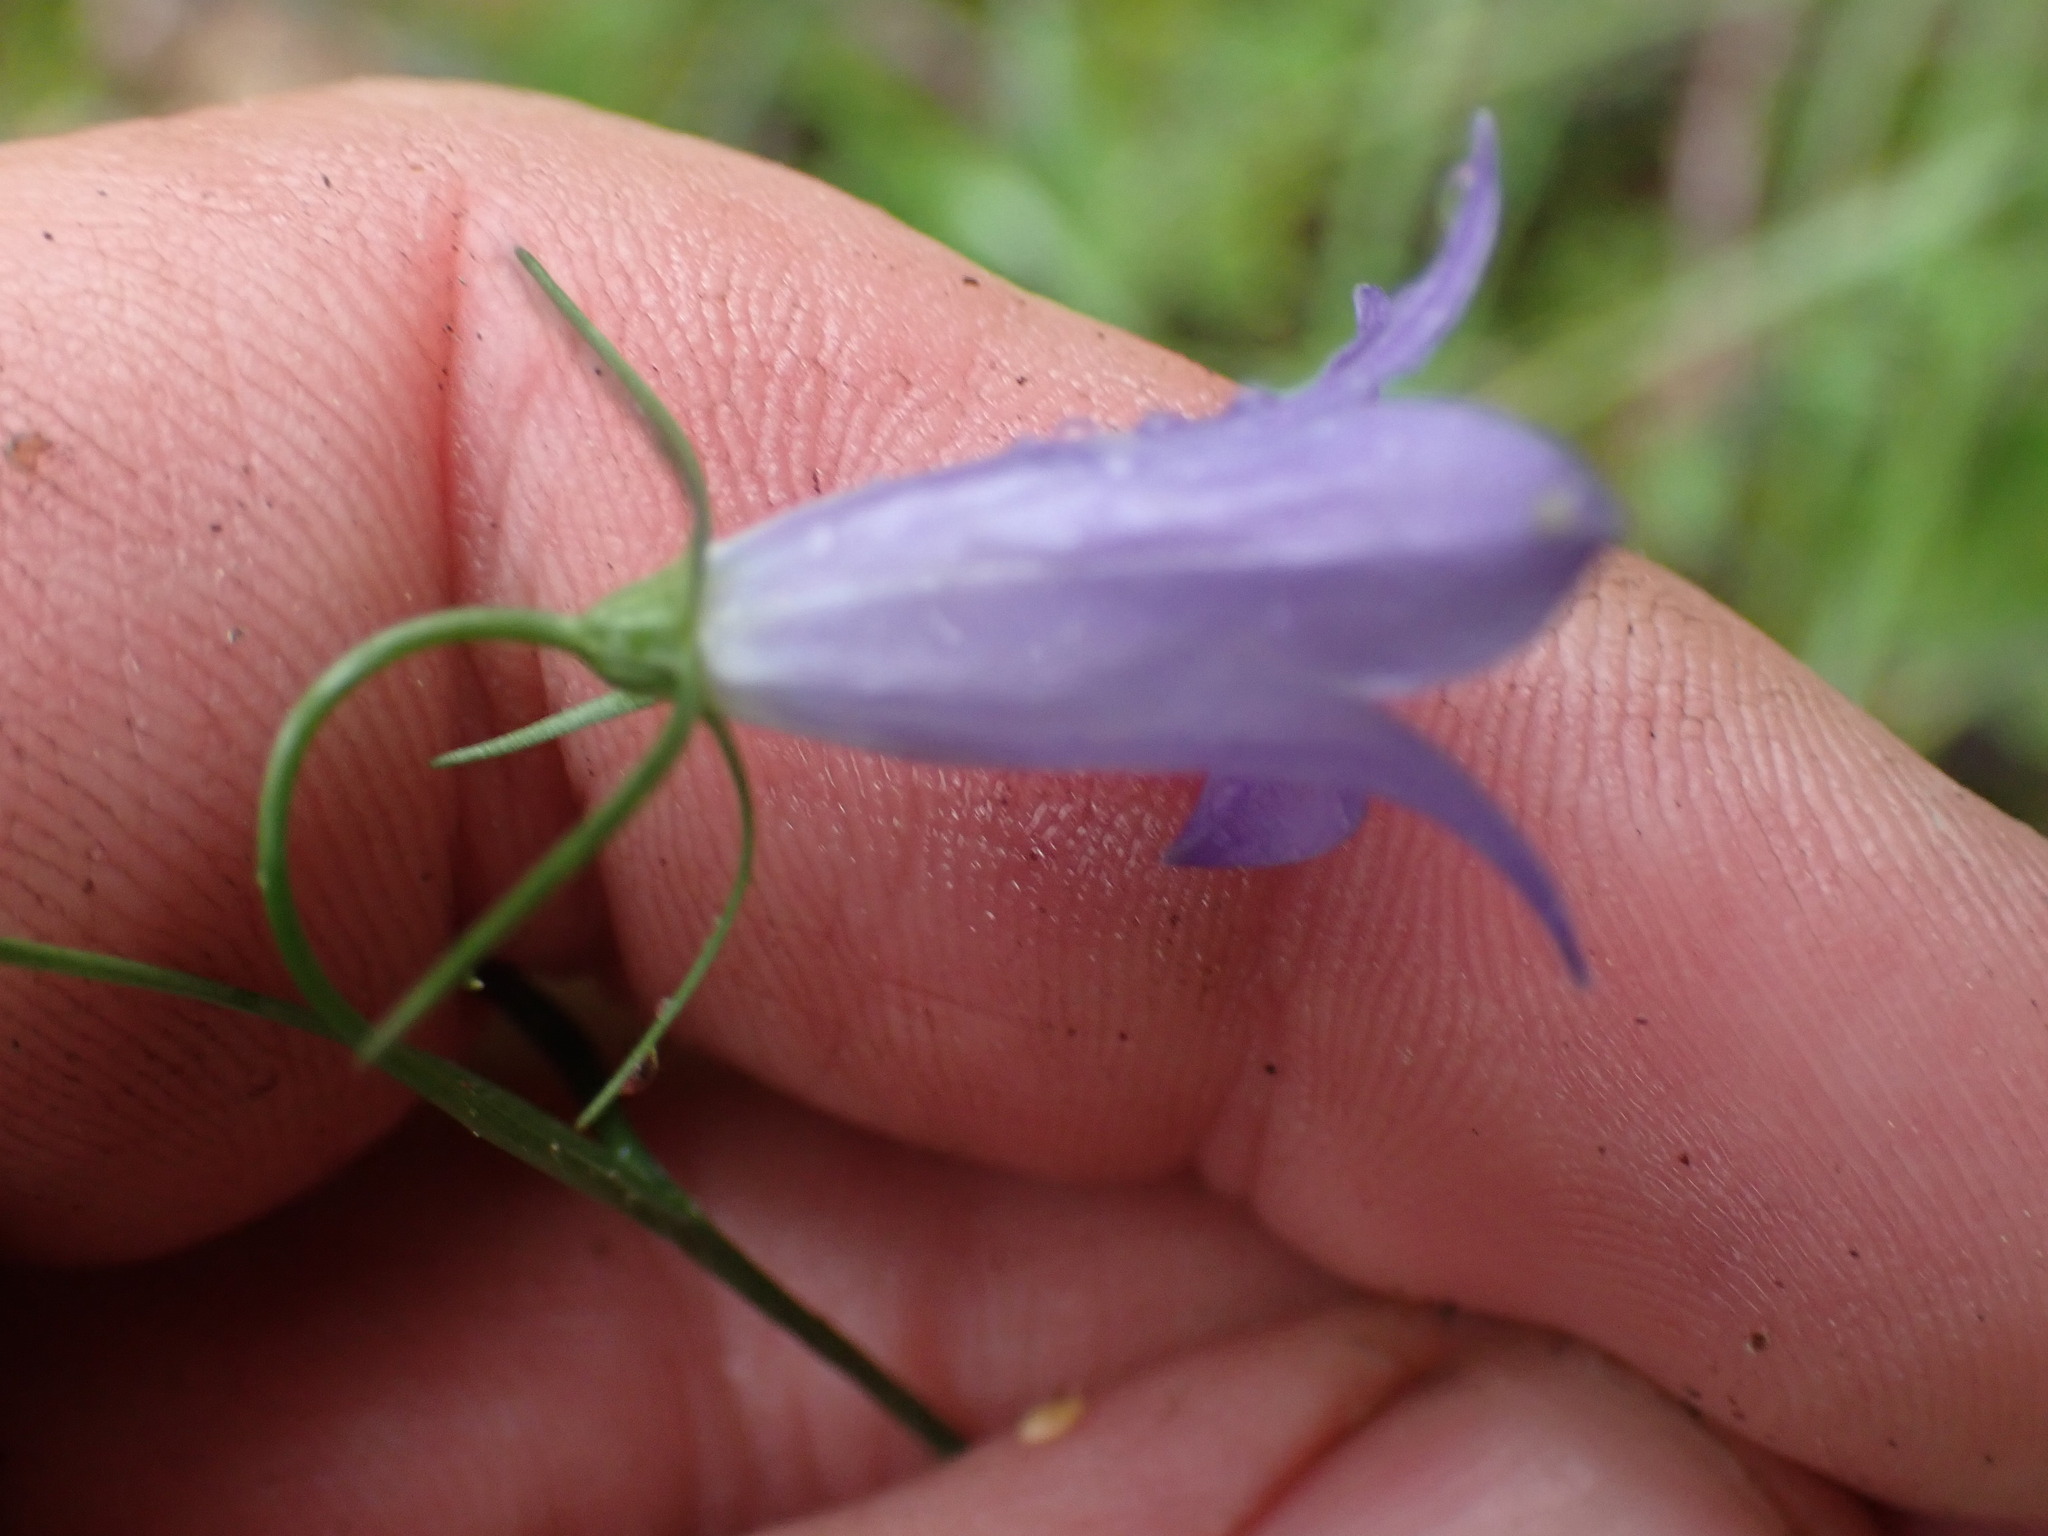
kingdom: Plantae
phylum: Tracheophyta
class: Magnoliopsida
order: Asterales
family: Campanulaceae
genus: Campanula
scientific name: Campanula alaskana
